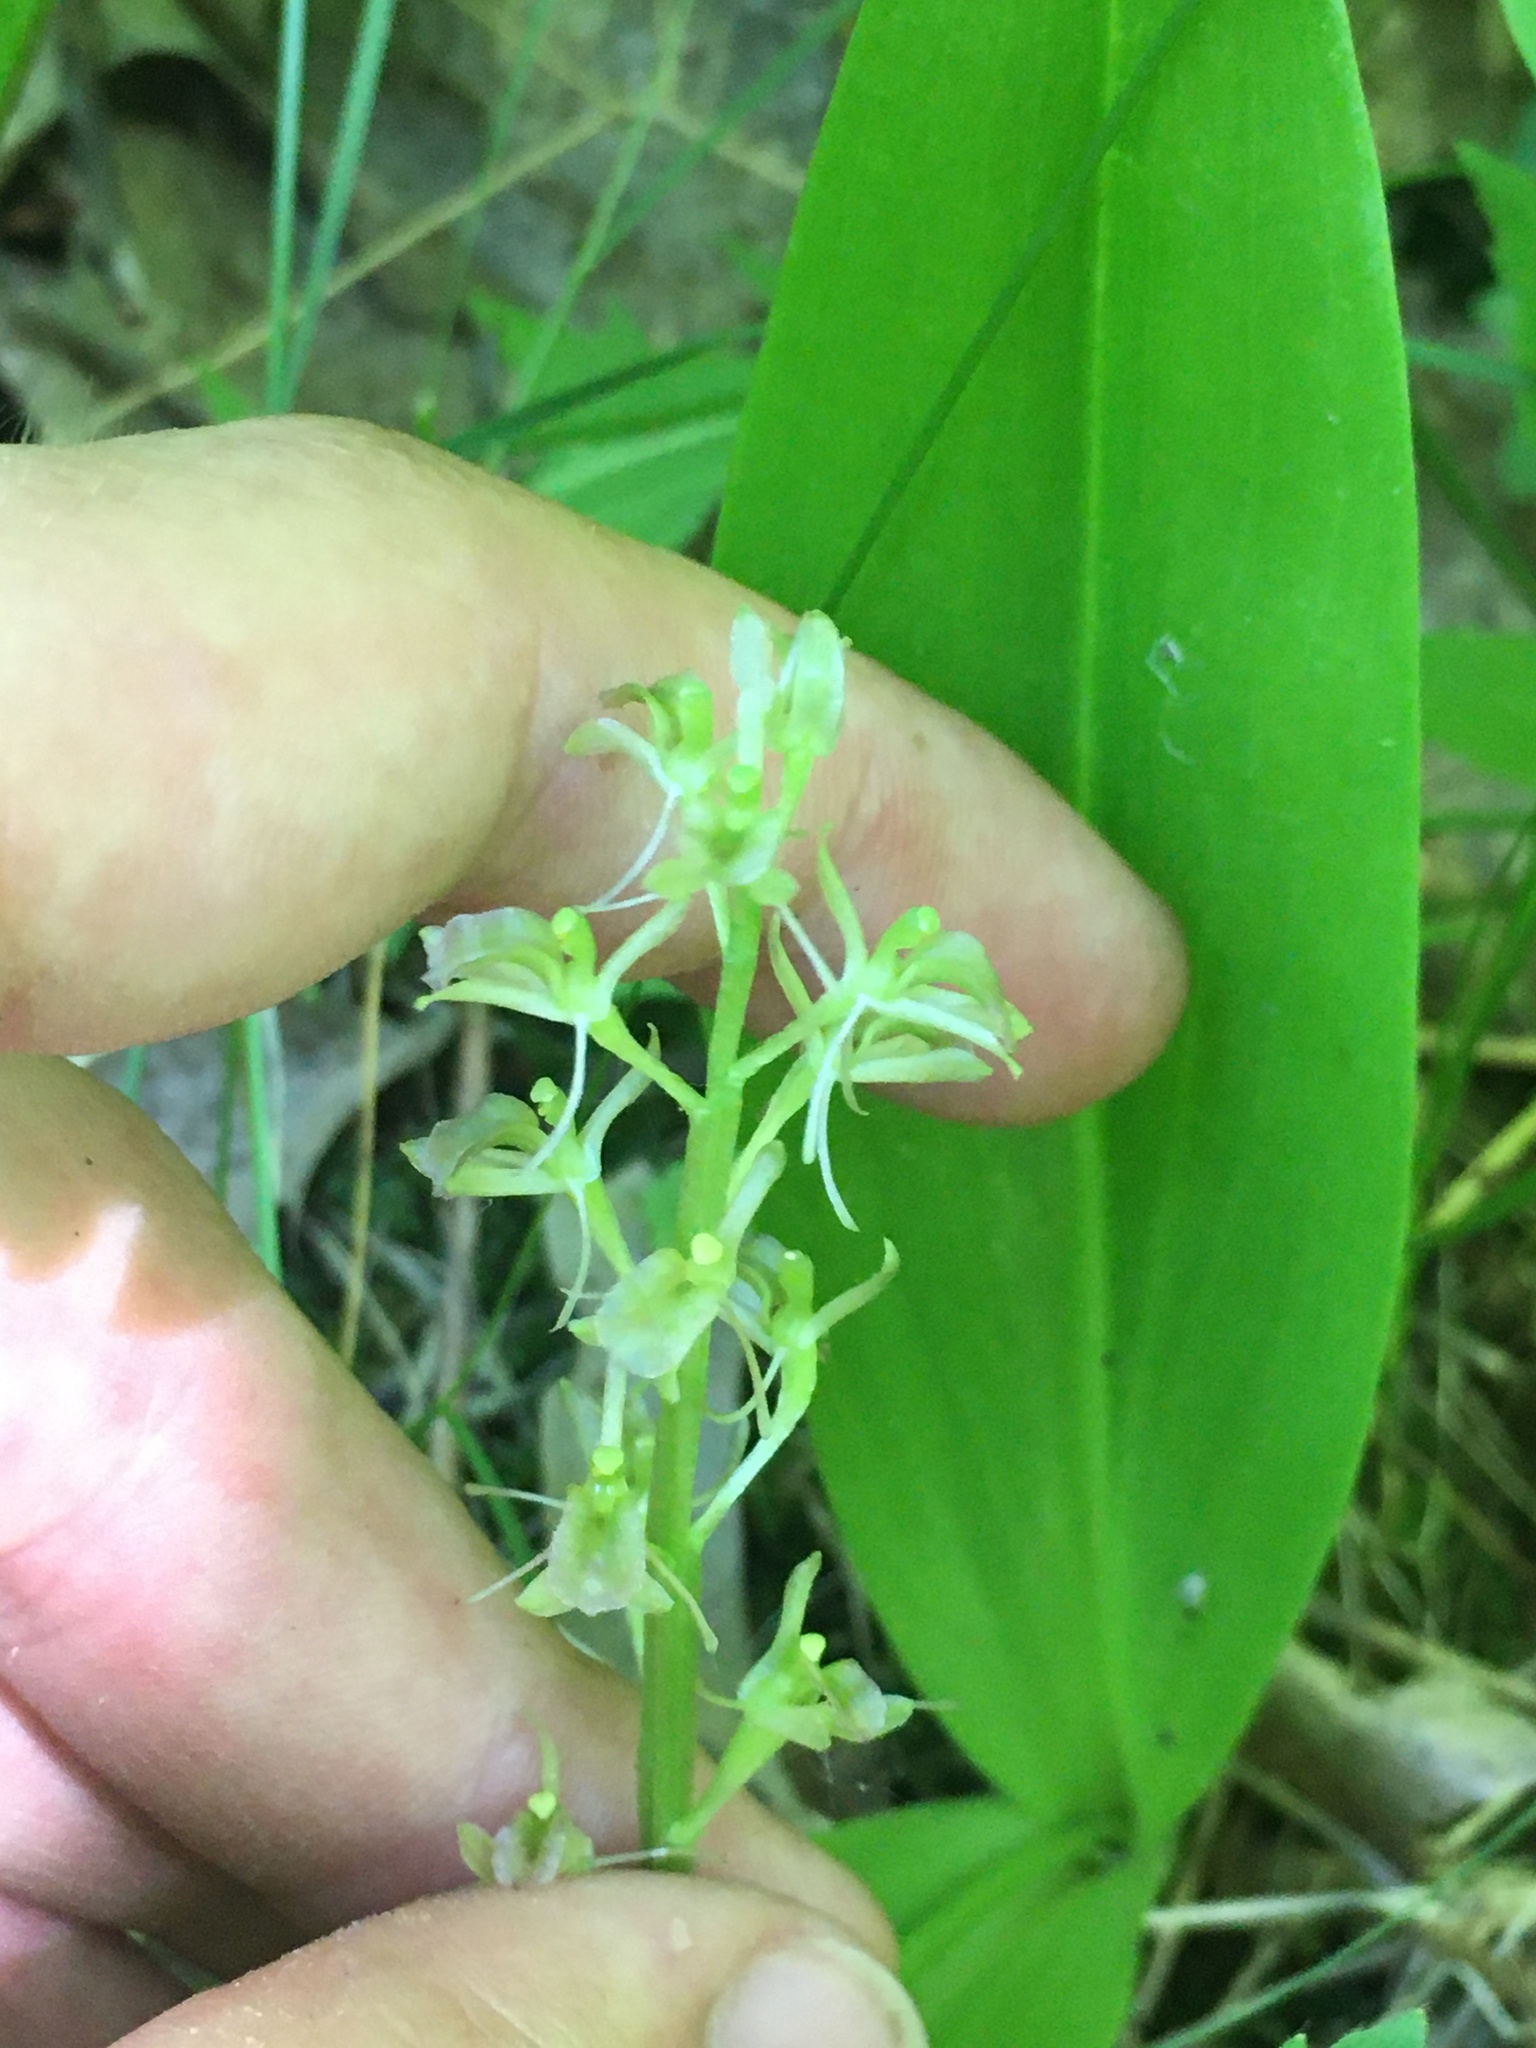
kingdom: Animalia
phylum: Arthropoda
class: Insecta
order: Coleoptera
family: Curculionidae
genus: Liparis
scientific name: Liparis loeselii
